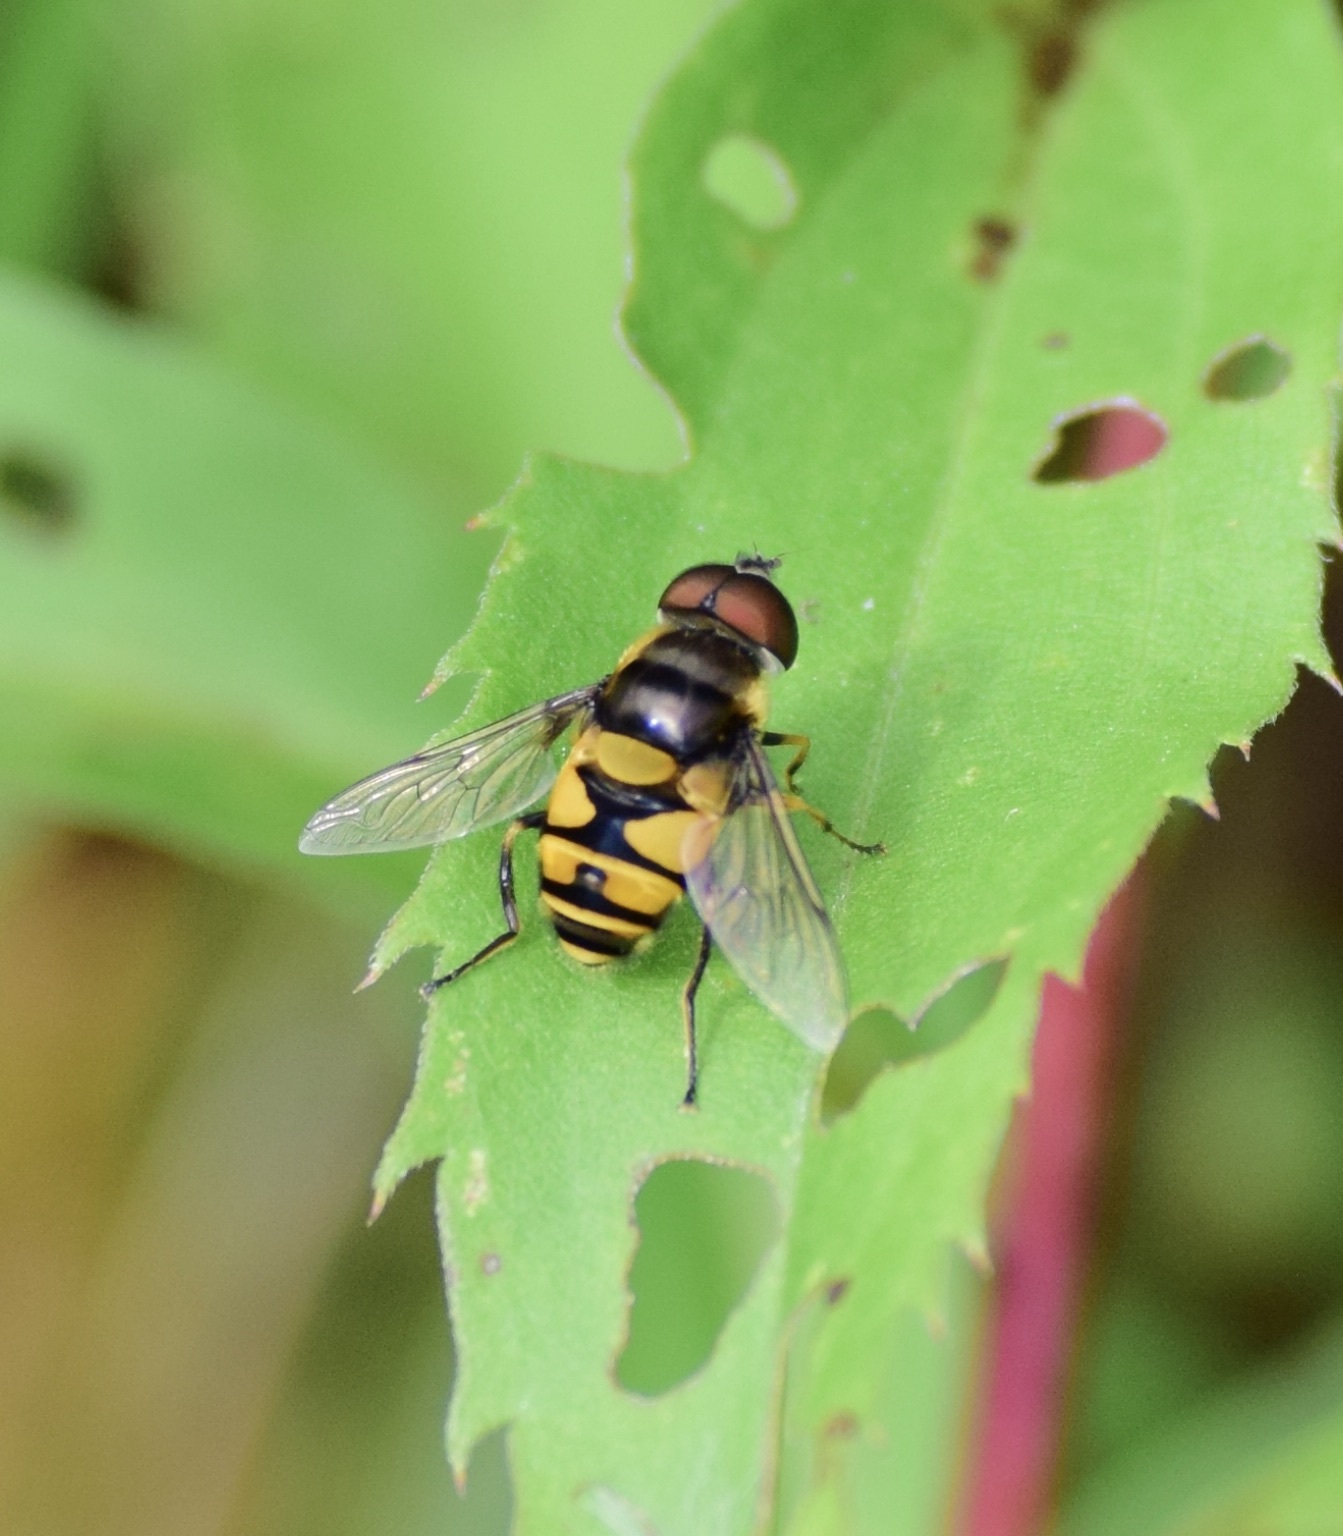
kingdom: Animalia
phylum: Arthropoda
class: Insecta
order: Diptera
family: Syrphidae
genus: Eristalis
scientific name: Eristalis transversa
